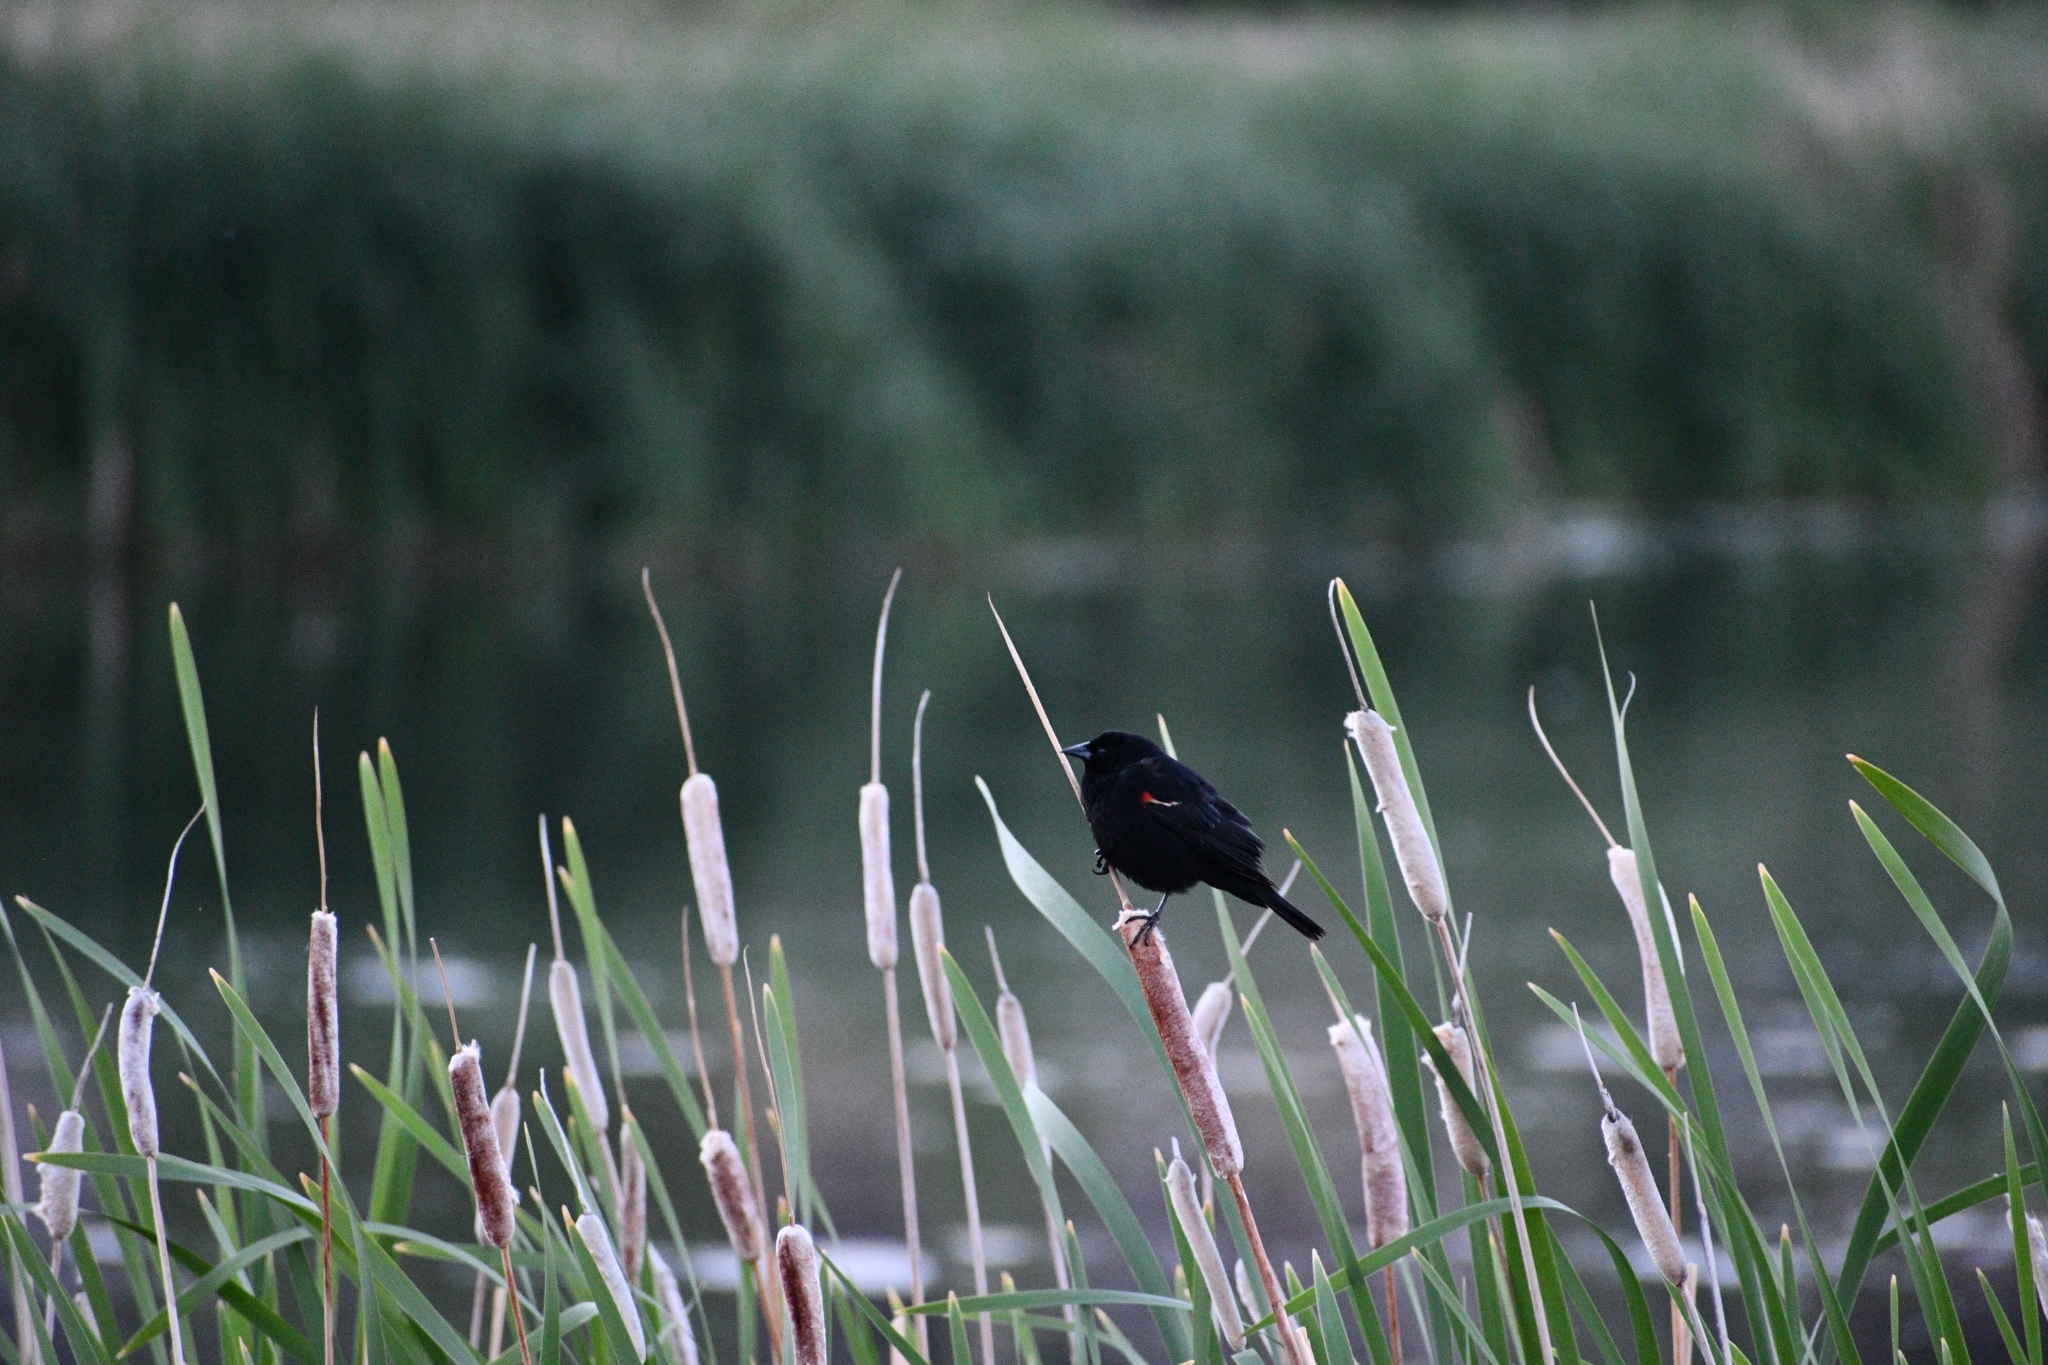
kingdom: Animalia
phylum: Chordata
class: Aves
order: Passeriformes
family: Icteridae
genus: Agelaius
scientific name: Agelaius phoeniceus
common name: Red-winged blackbird
